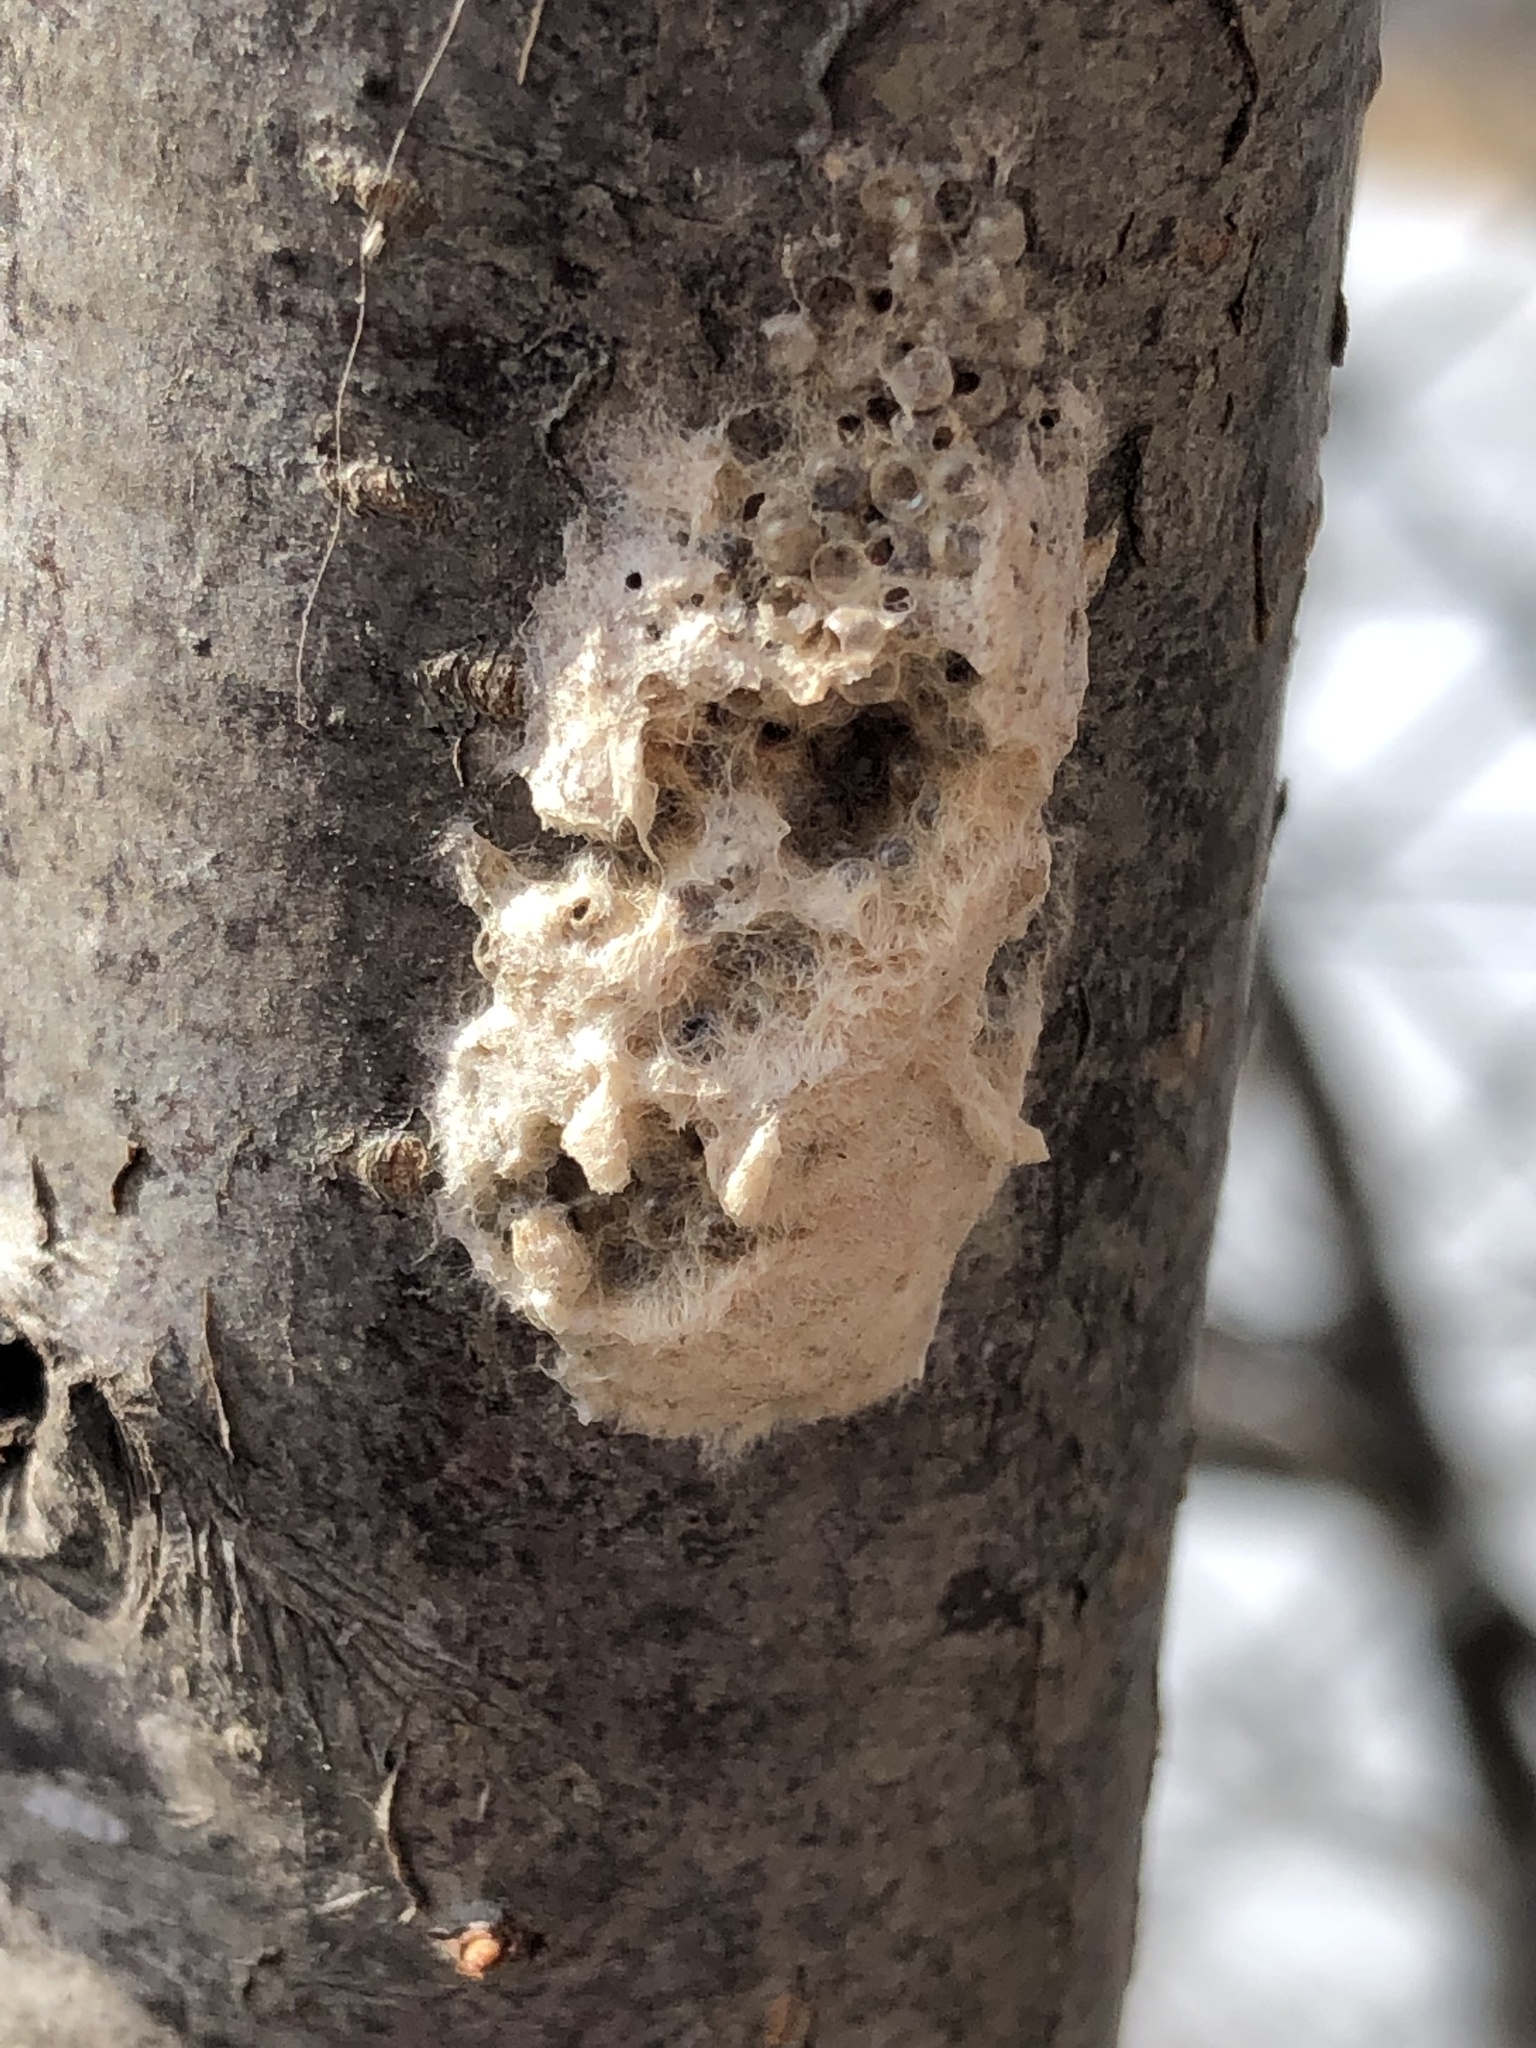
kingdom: Animalia
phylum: Arthropoda
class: Insecta
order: Lepidoptera
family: Erebidae
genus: Lymantria
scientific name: Lymantria dispar
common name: Gypsy moth
